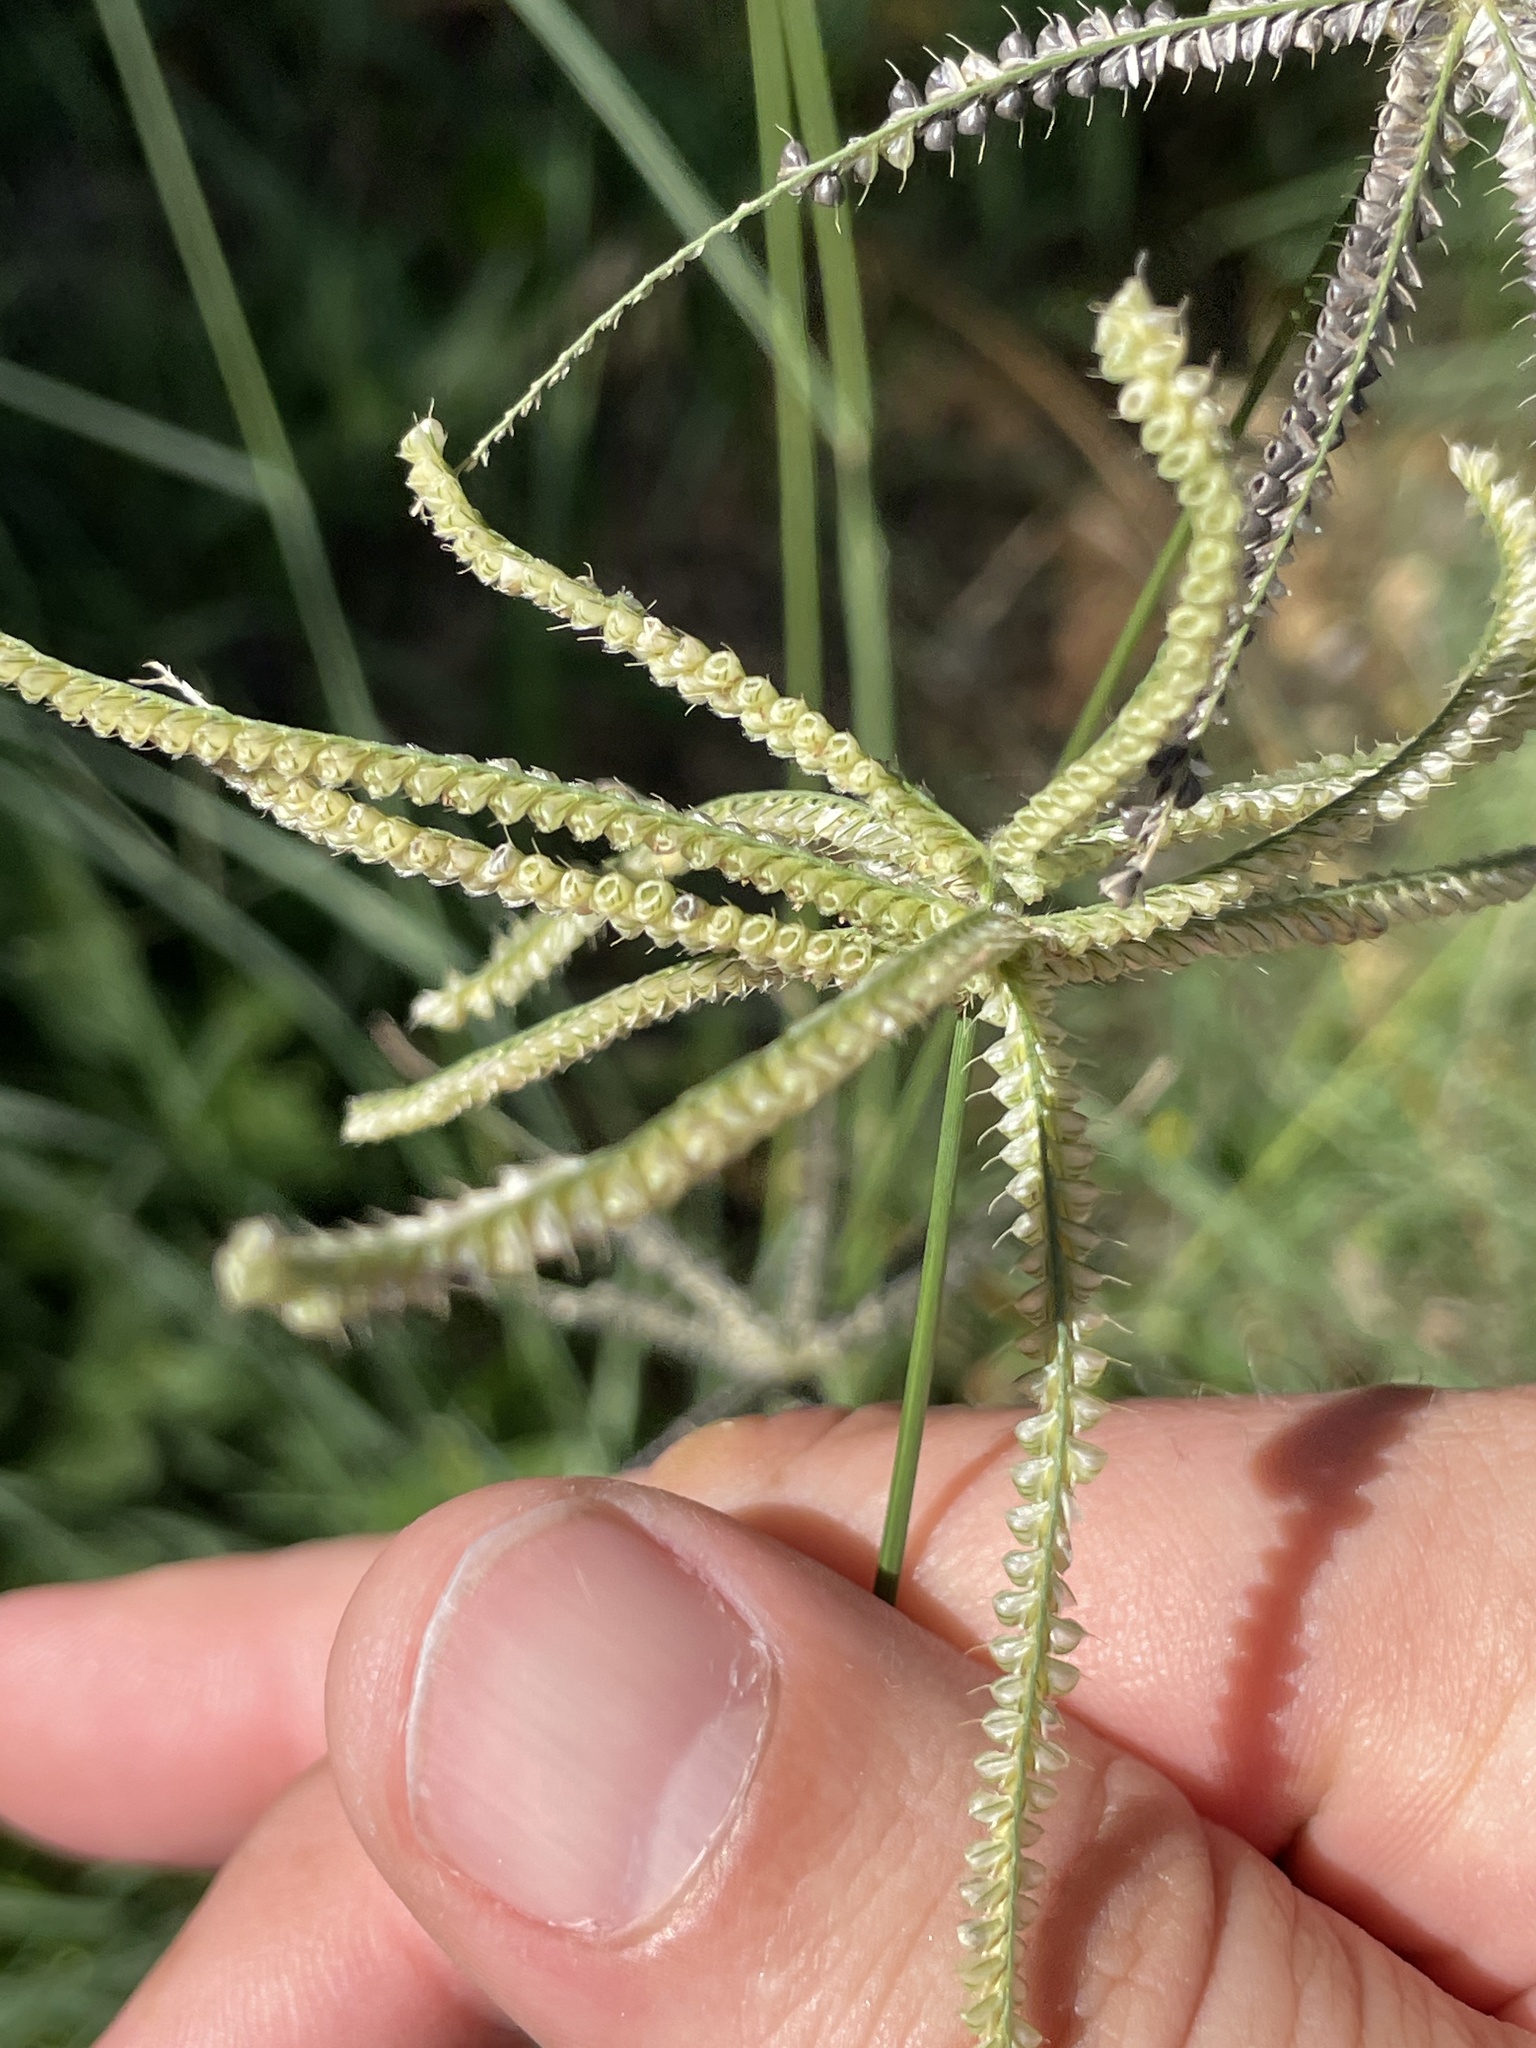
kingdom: Plantae
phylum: Tracheophyta
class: Liliopsida
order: Poales
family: Poaceae
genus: Chloris
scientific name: Chloris cucullata
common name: Hooded windmill grass
